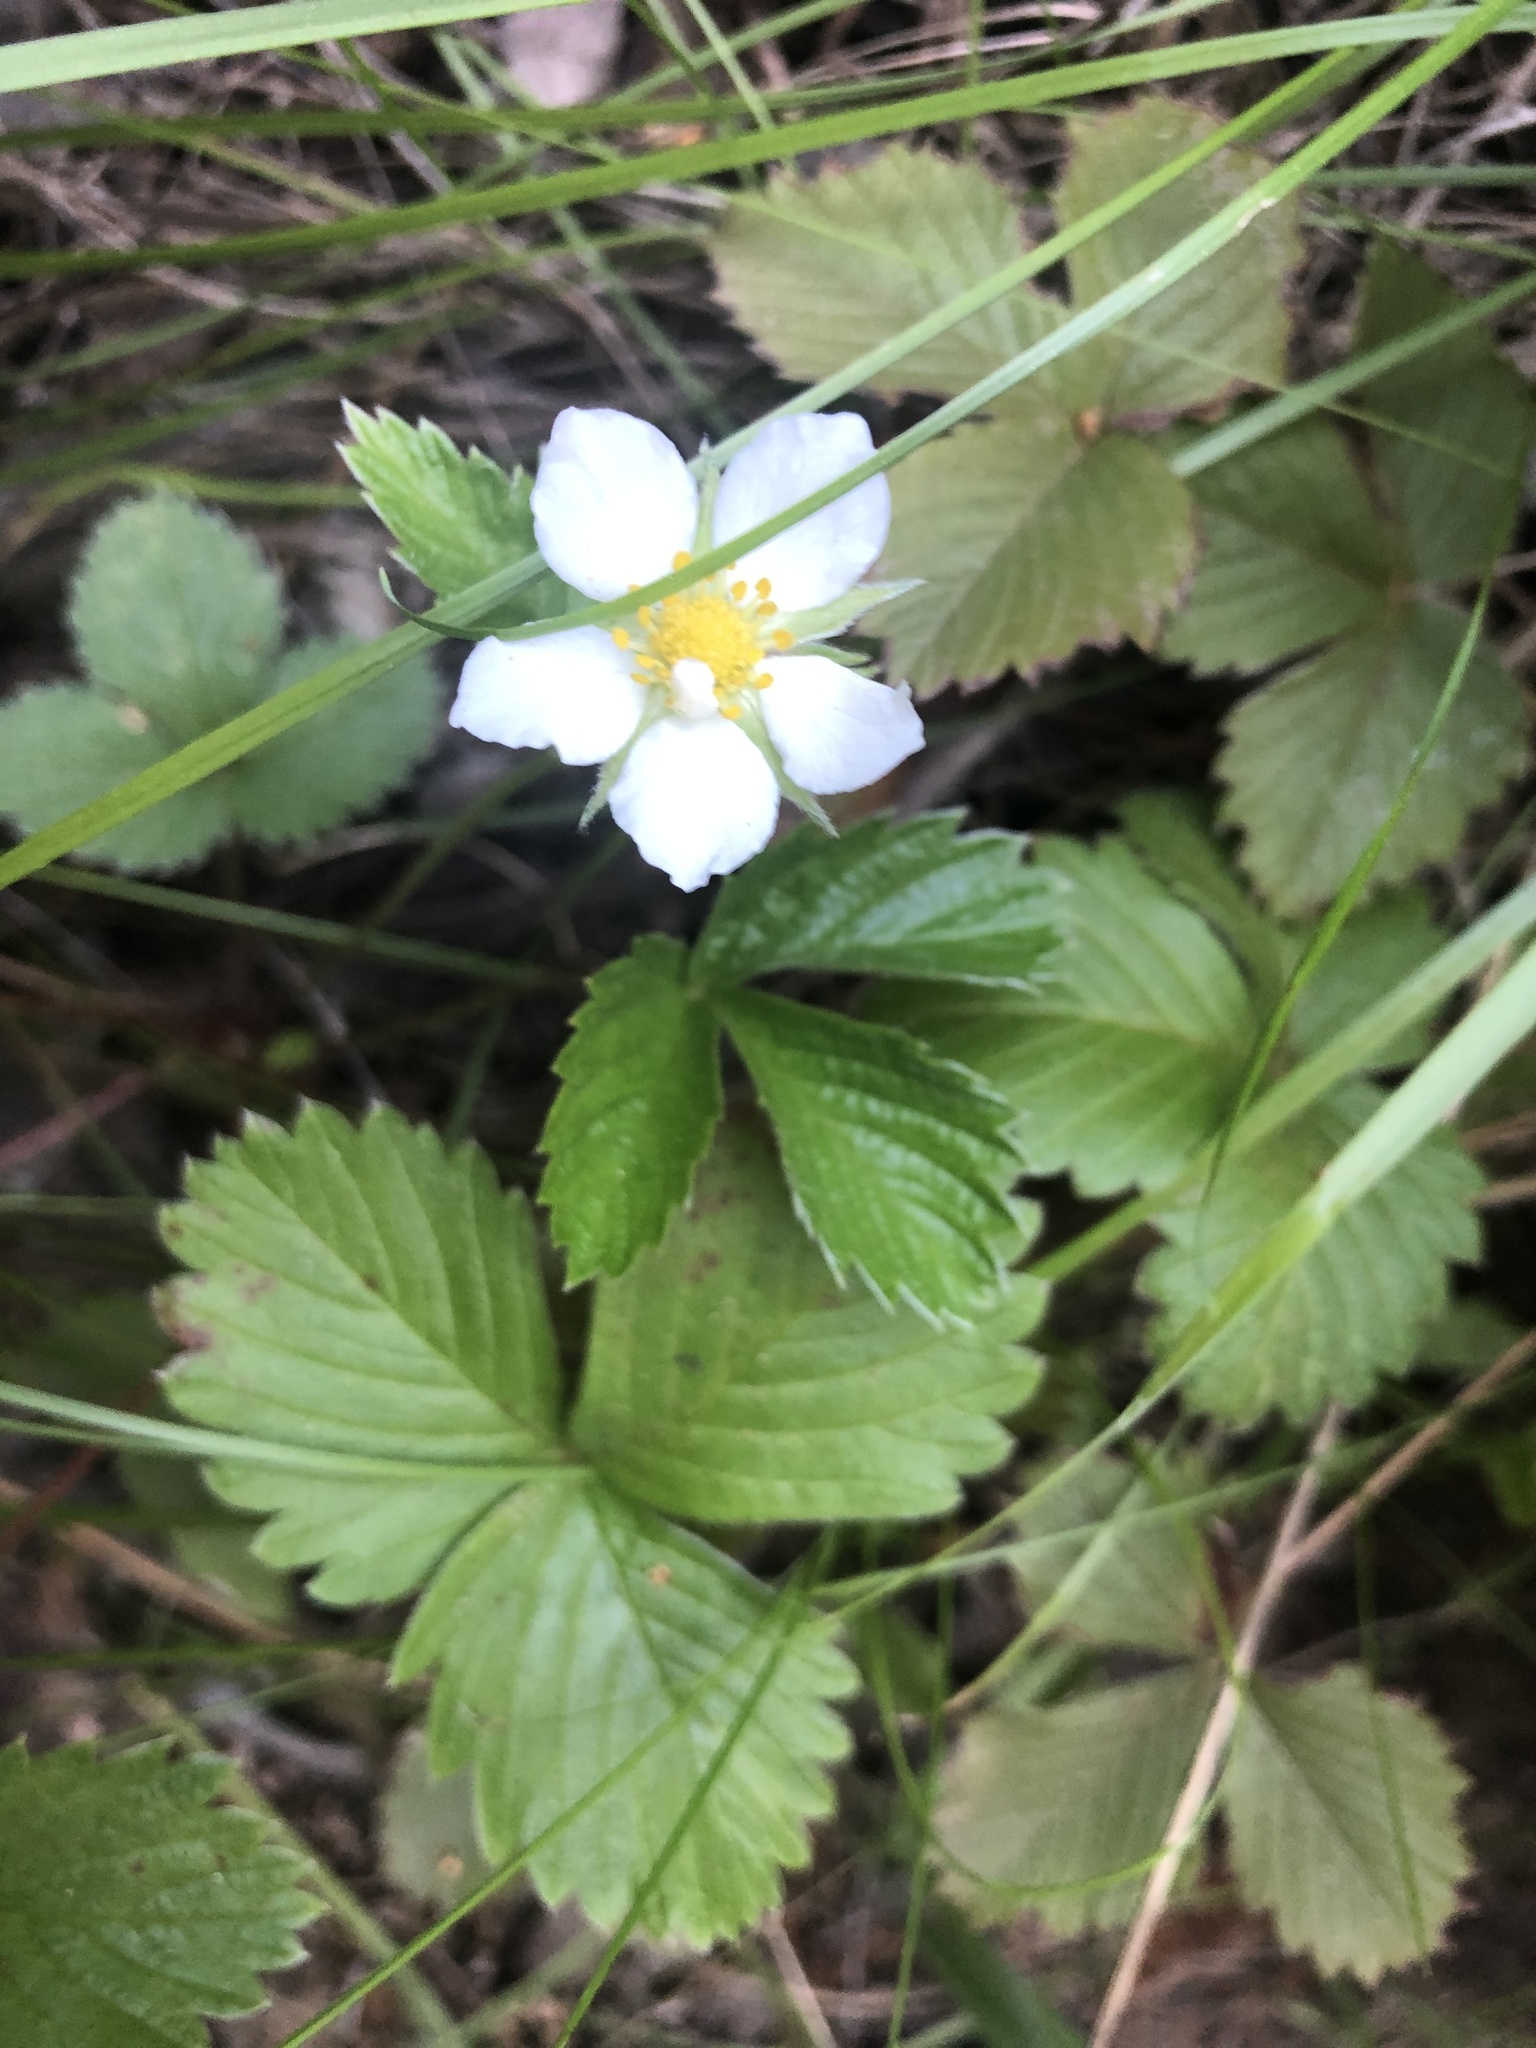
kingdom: Plantae
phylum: Tracheophyta
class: Magnoliopsida
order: Rosales
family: Rosaceae
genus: Fragaria
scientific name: Fragaria vesca
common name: Wild strawberry
